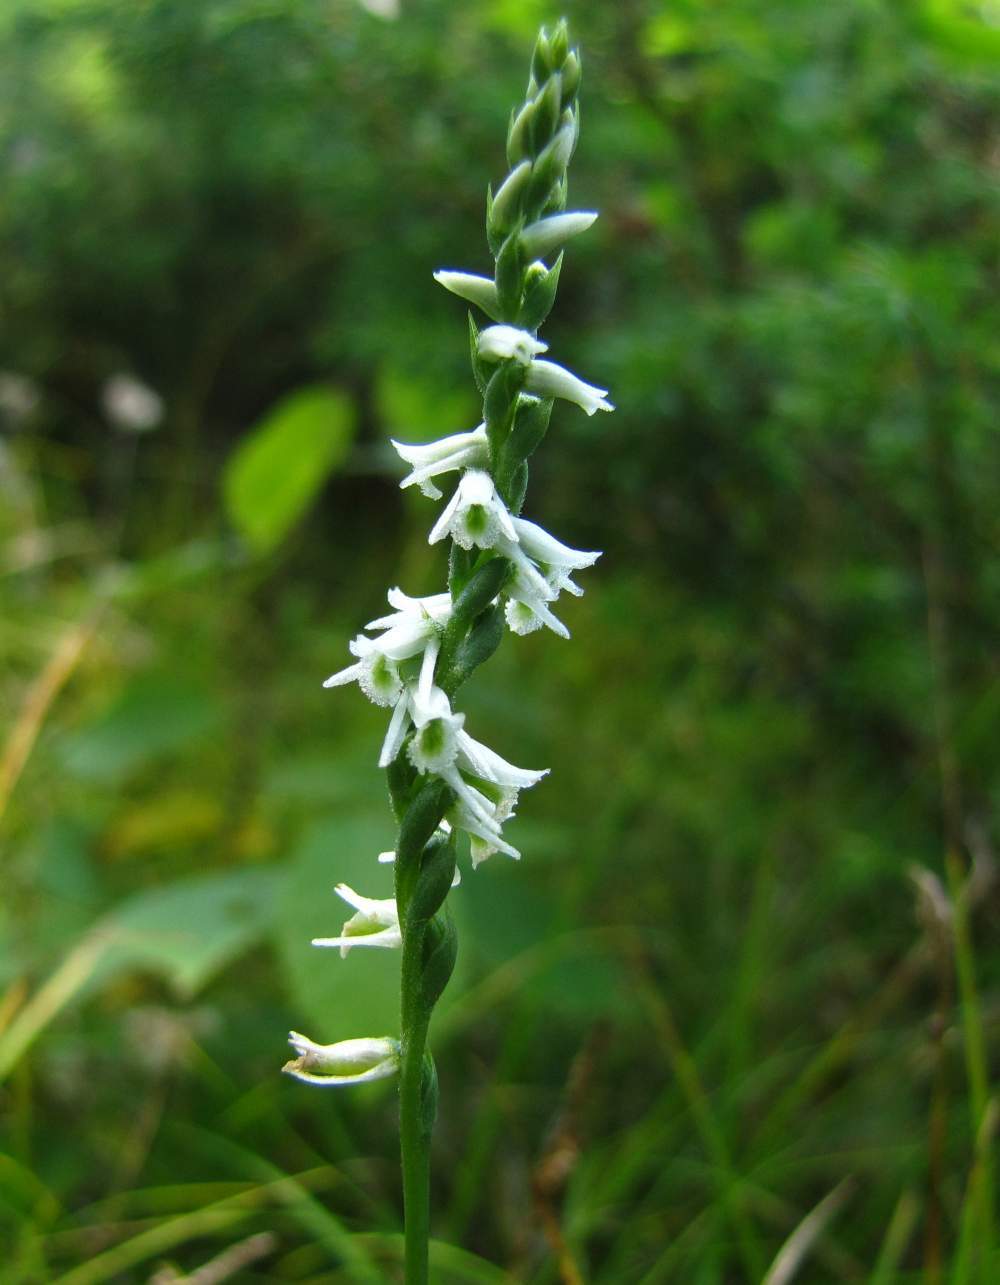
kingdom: Plantae
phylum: Tracheophyta
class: Liliopsida
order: Asparagales
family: Orchidaceae
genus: Spiranthes
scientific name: Spiranthes lacera
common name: Northern slender ladies'-tresses
